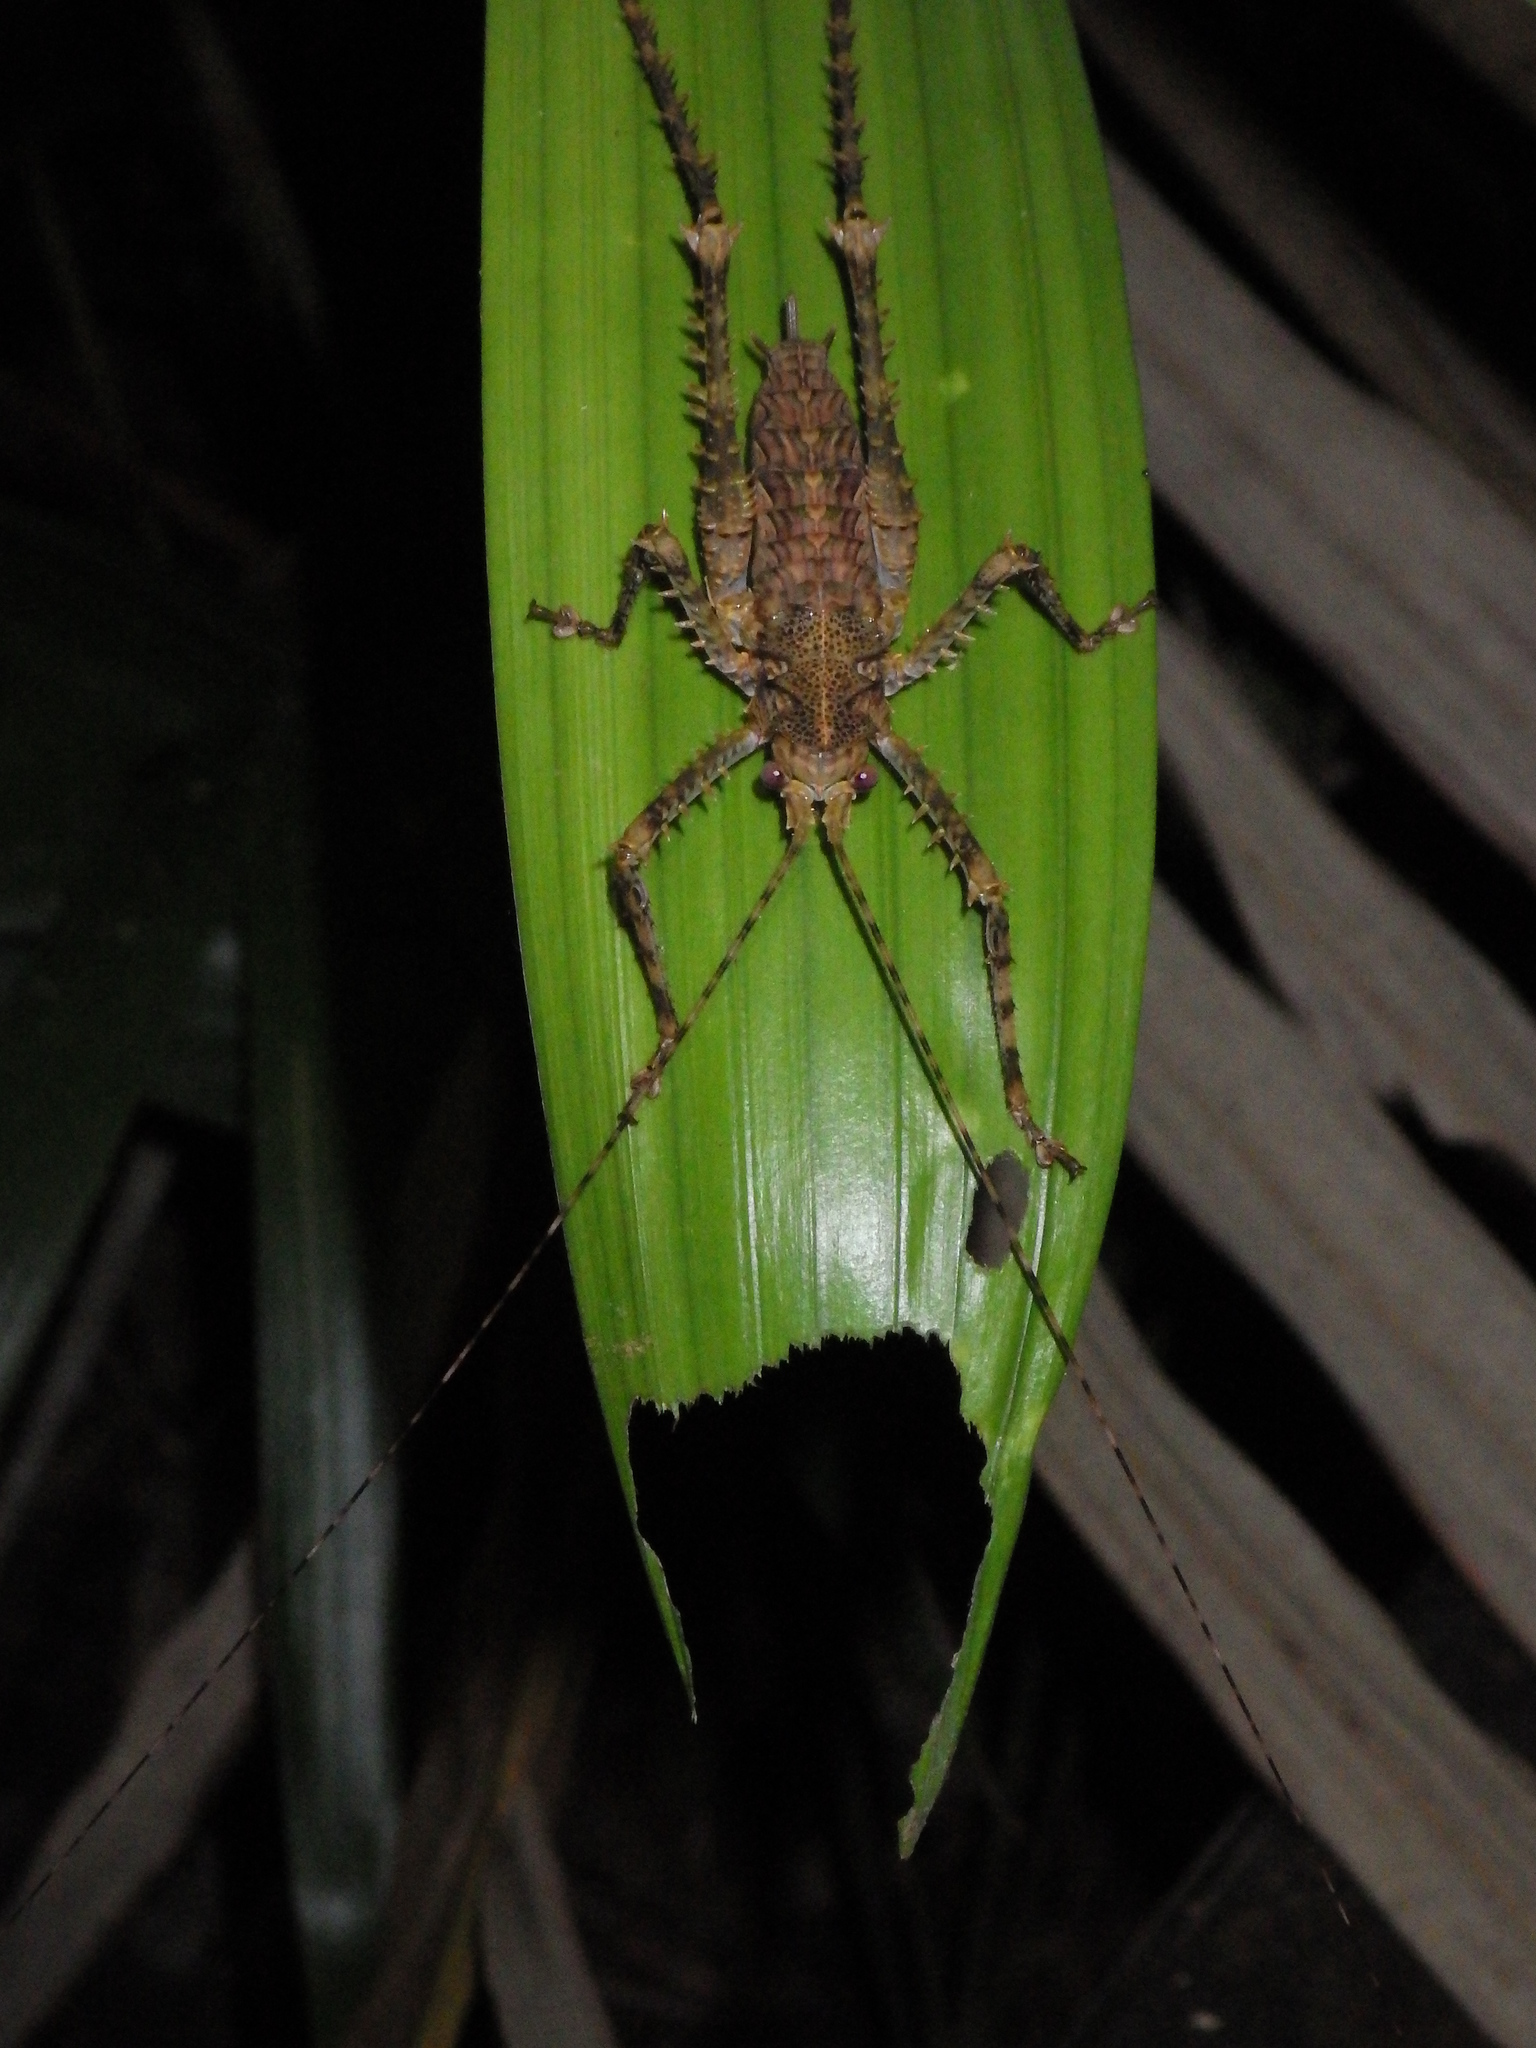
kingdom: Animalia
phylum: Arthropoda
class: Insecta
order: Orthoptera
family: Tettigoniidae
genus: Phricta
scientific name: Phricta spinosa
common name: Giant spiny forest katydid
